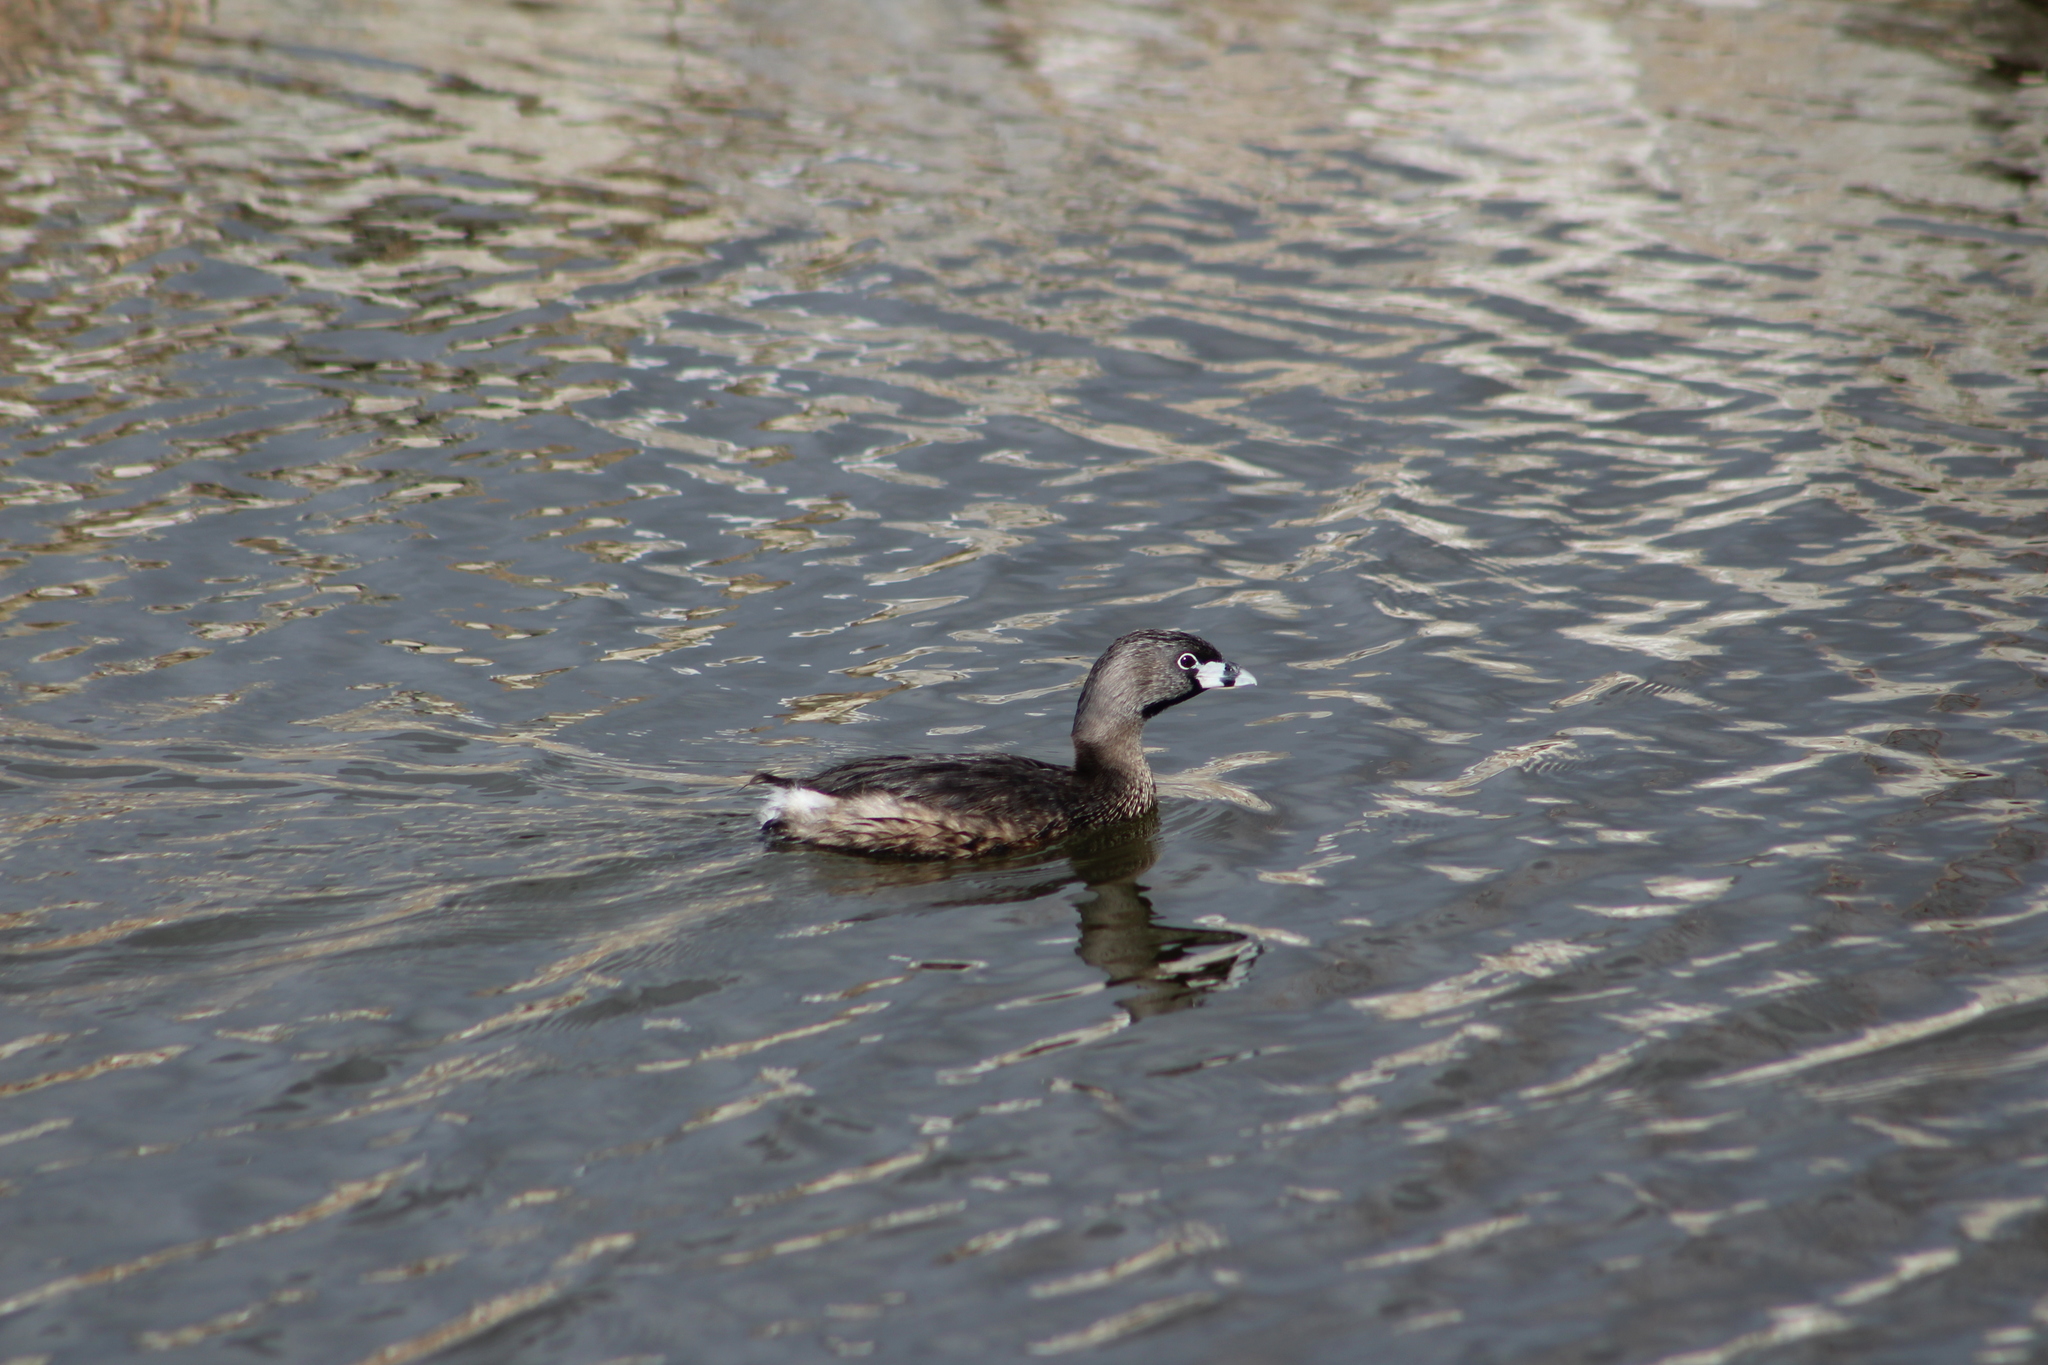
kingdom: Animalia
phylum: Chordata
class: Aves
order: Podicipediformes
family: Podicipedidae
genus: Podilymbus
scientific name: Podilymbus podiceps
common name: Pied-billed grebe
